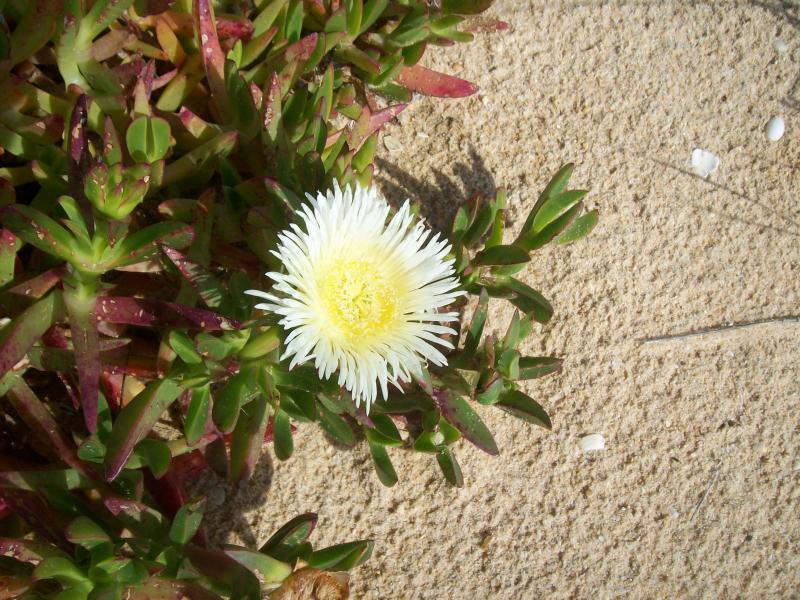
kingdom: Plantae
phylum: Tracheophyta
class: Magnoliopsida
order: Caryophyllales
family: Aizoaceae
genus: Carpobrotus
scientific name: Carpobrotus edulis
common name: Hottentot-fig
